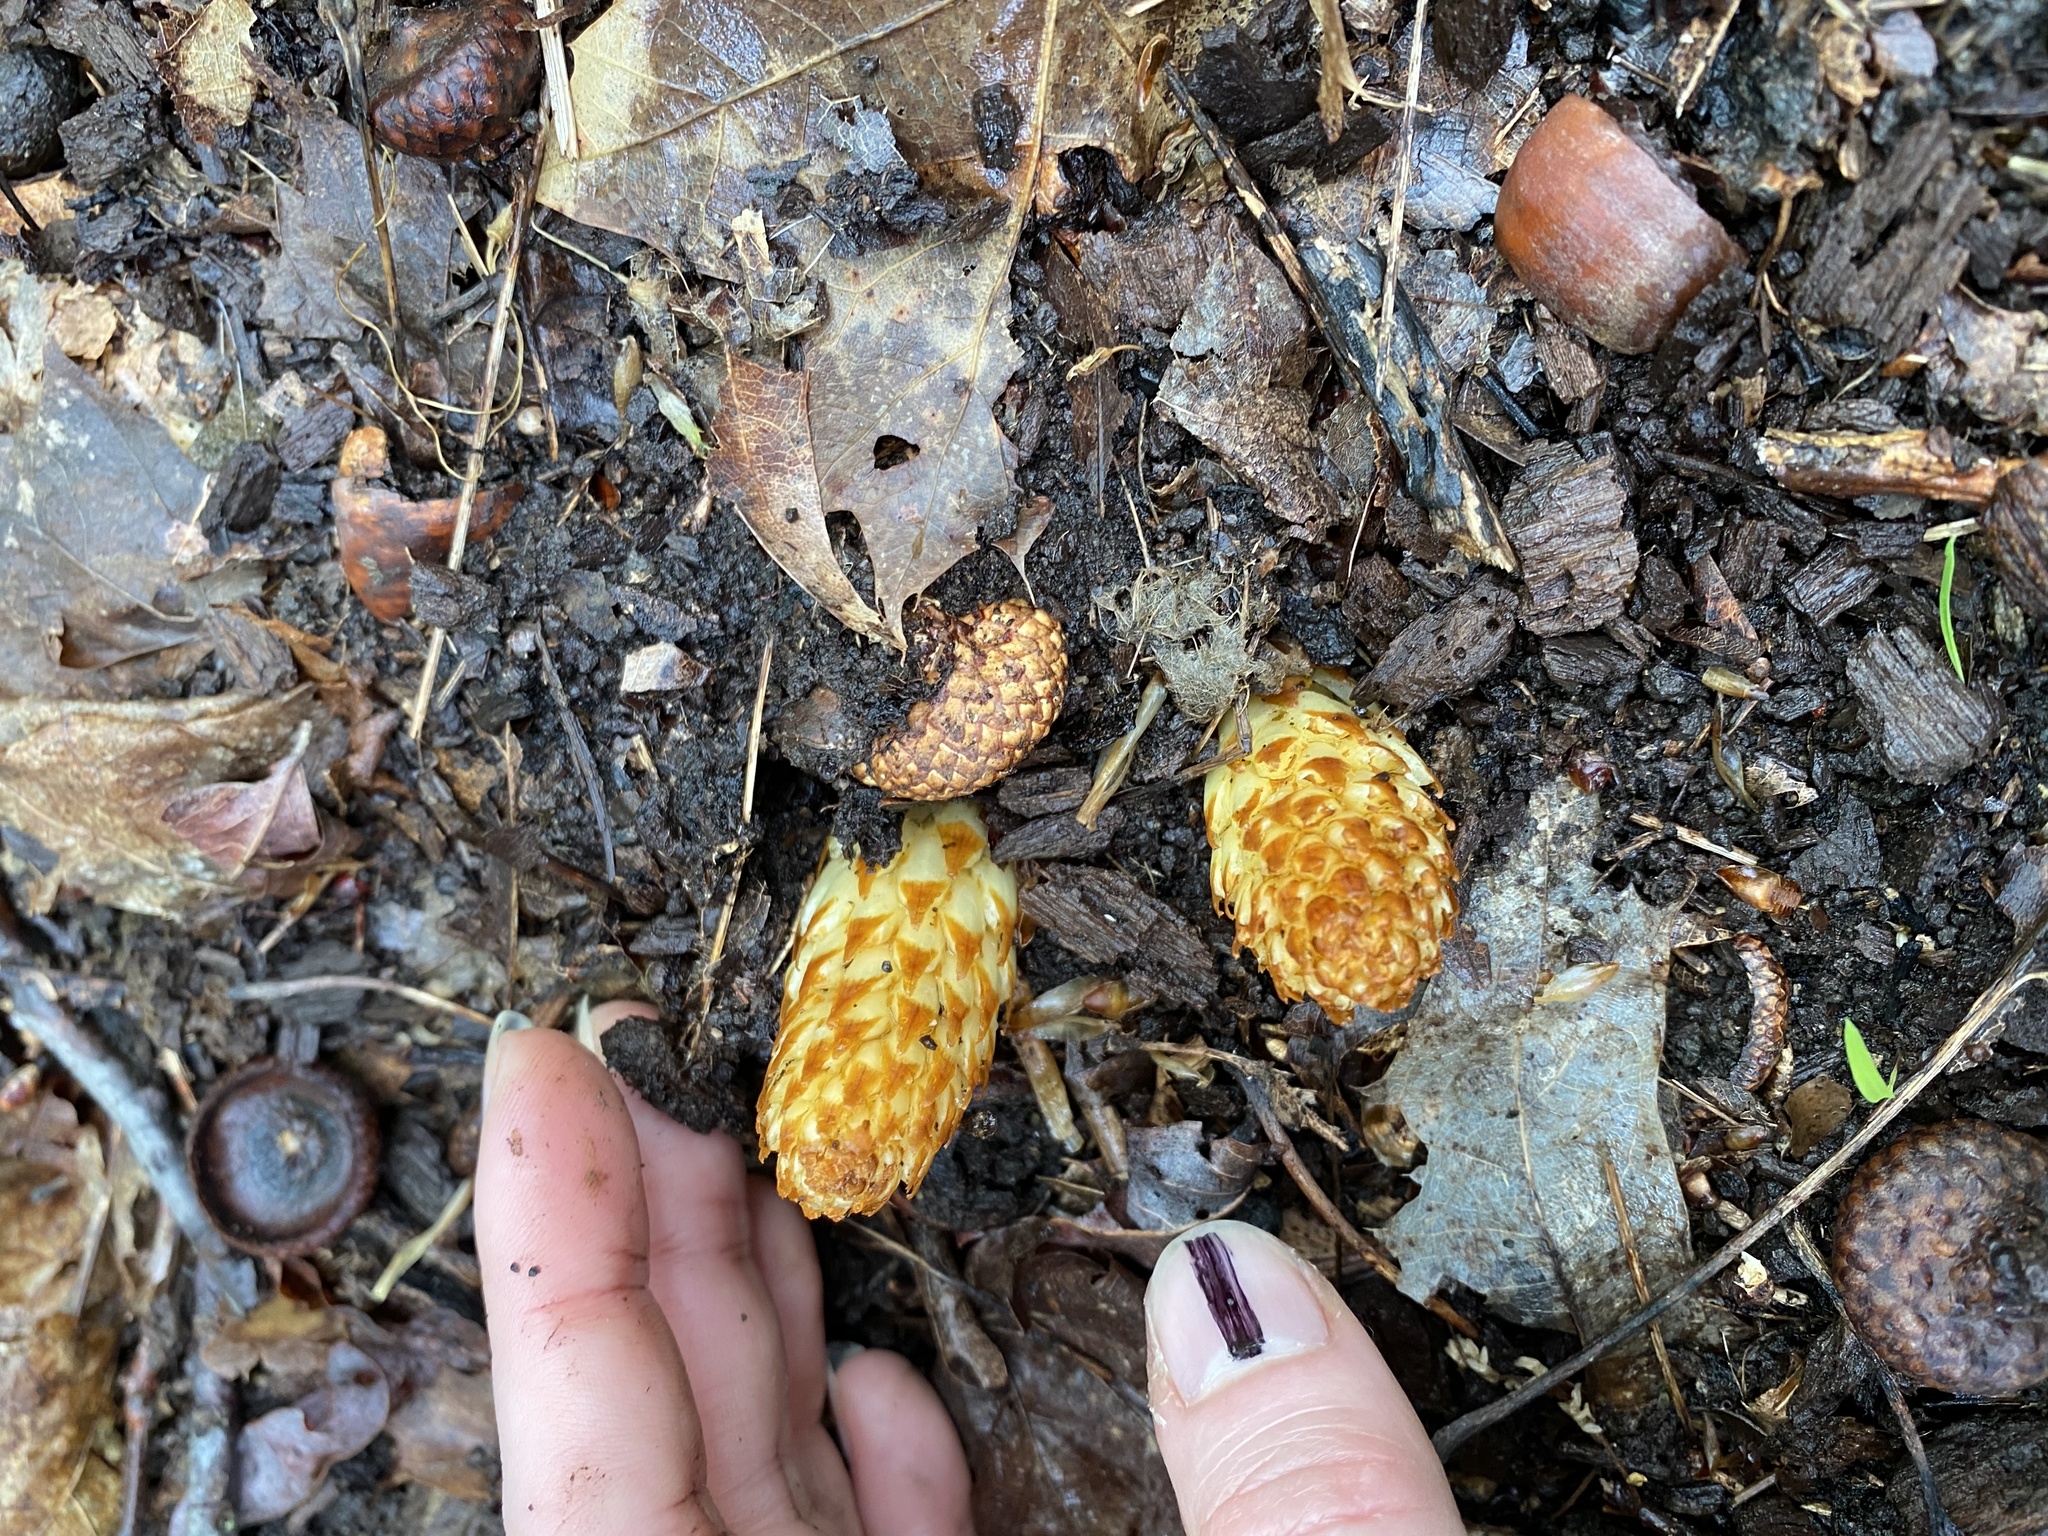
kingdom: Plantae
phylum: Tracheophyta
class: Magnoliopsida
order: Lamiales
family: Orobanchaceae
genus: Conopholis
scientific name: Conopholis americana
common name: American cancer-root
